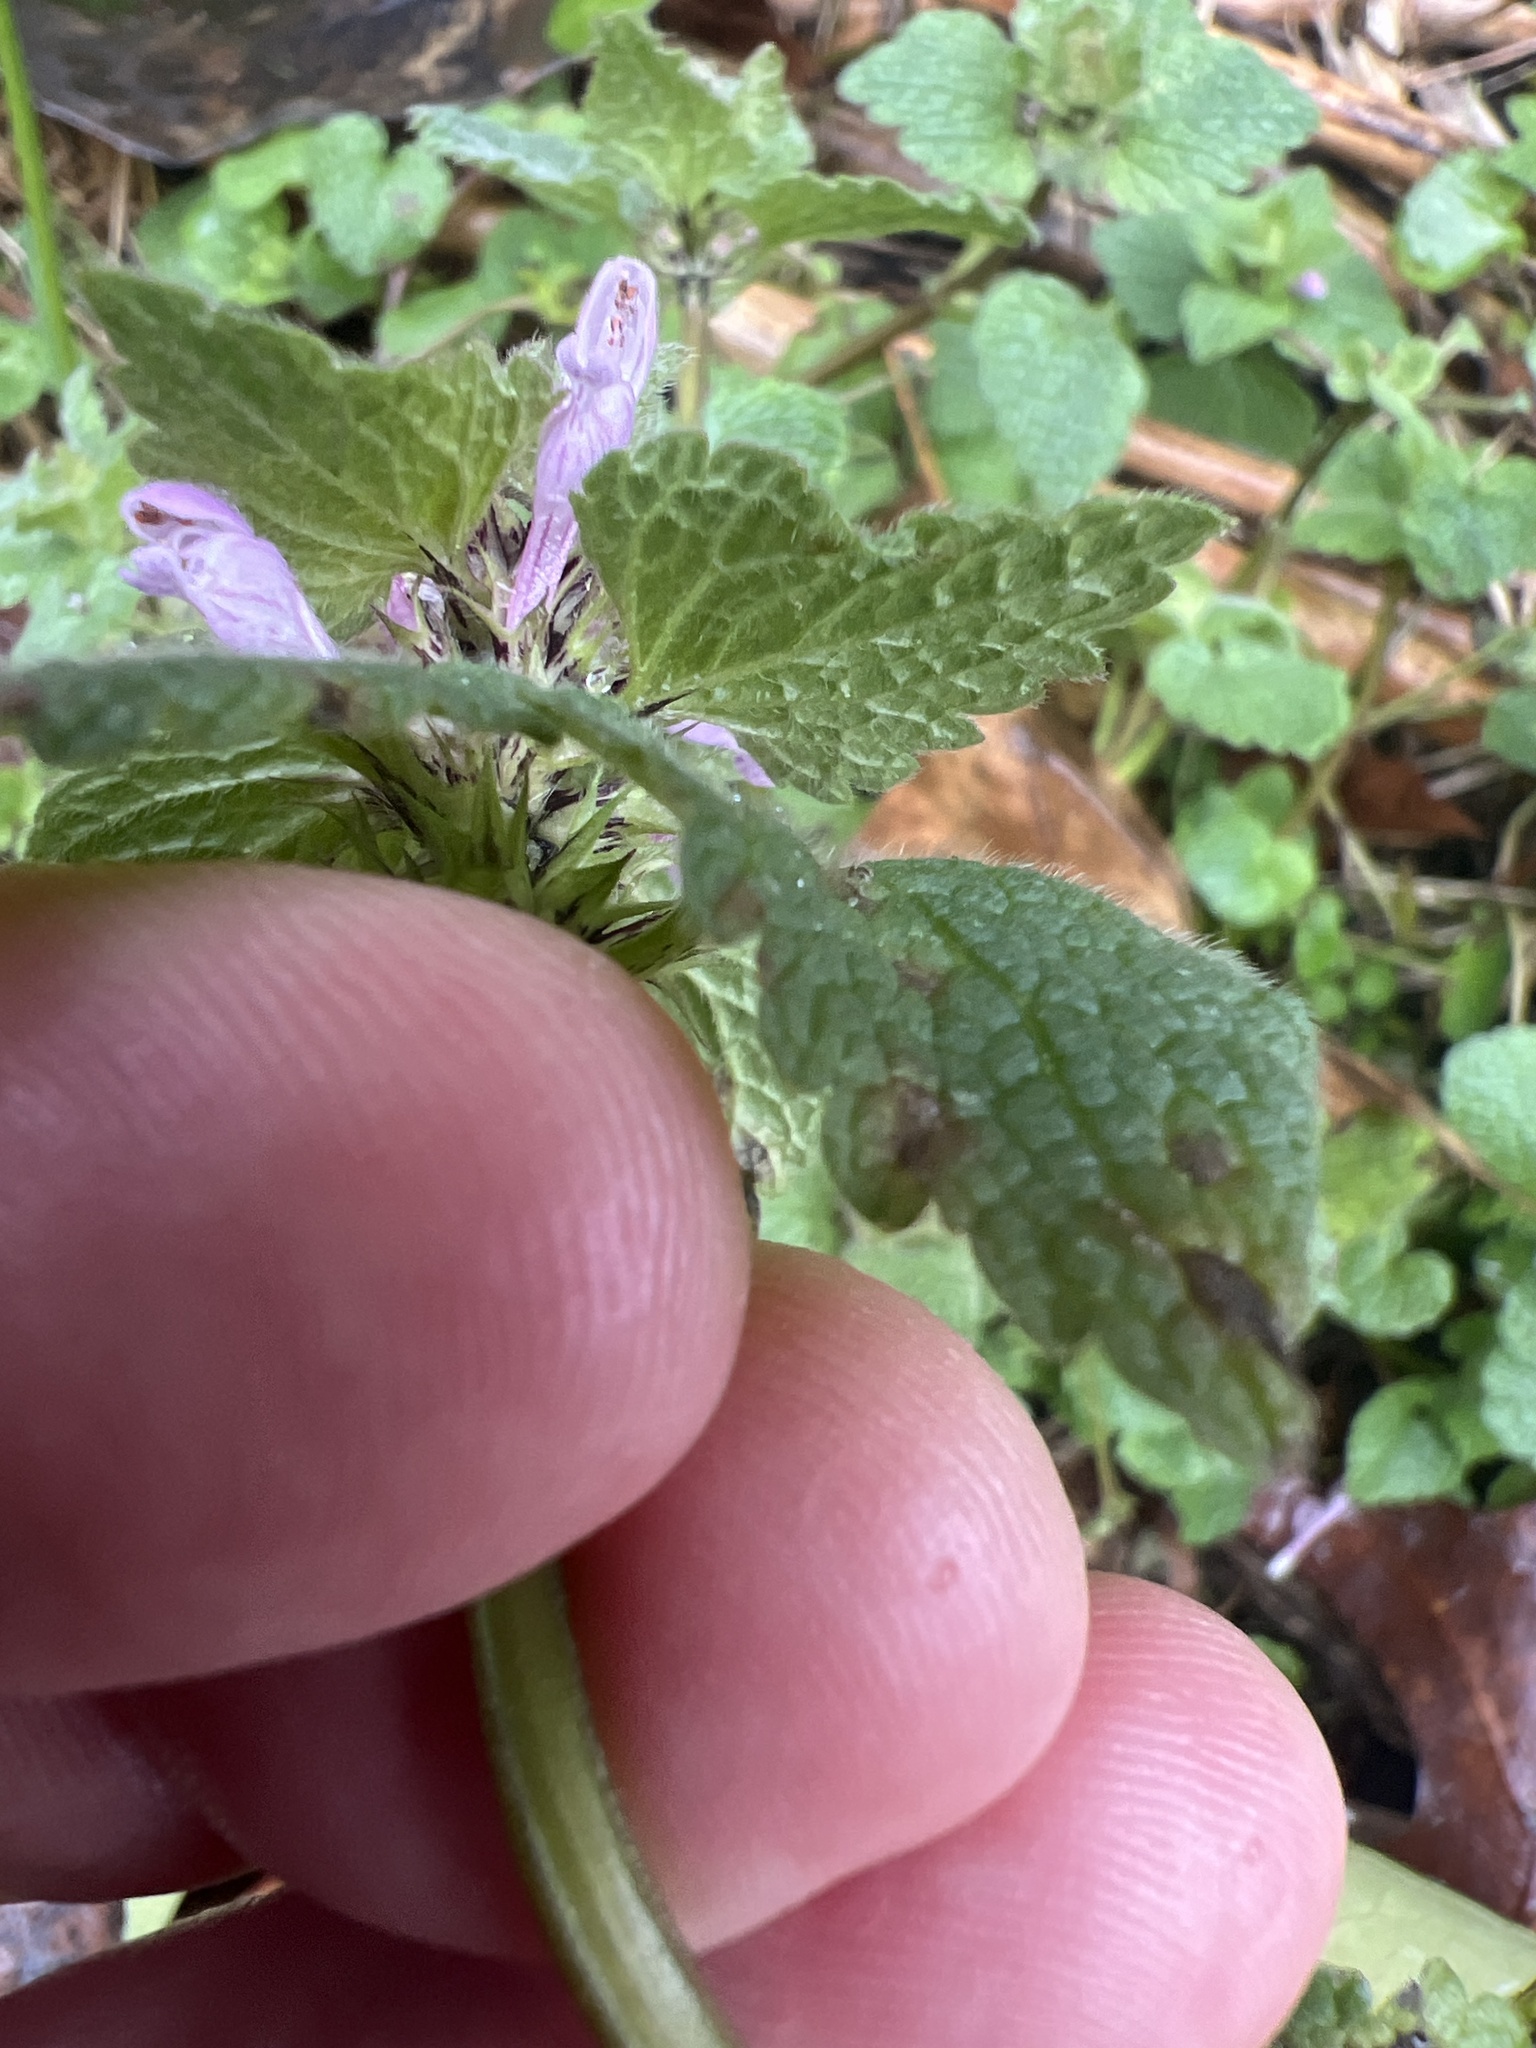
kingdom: Plantae
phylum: Tracheophyta
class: Magnoliopsida
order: Lamiales
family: Lamiaceae
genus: Lamium
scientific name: Lamium purpureum
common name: Red dead-nettle
